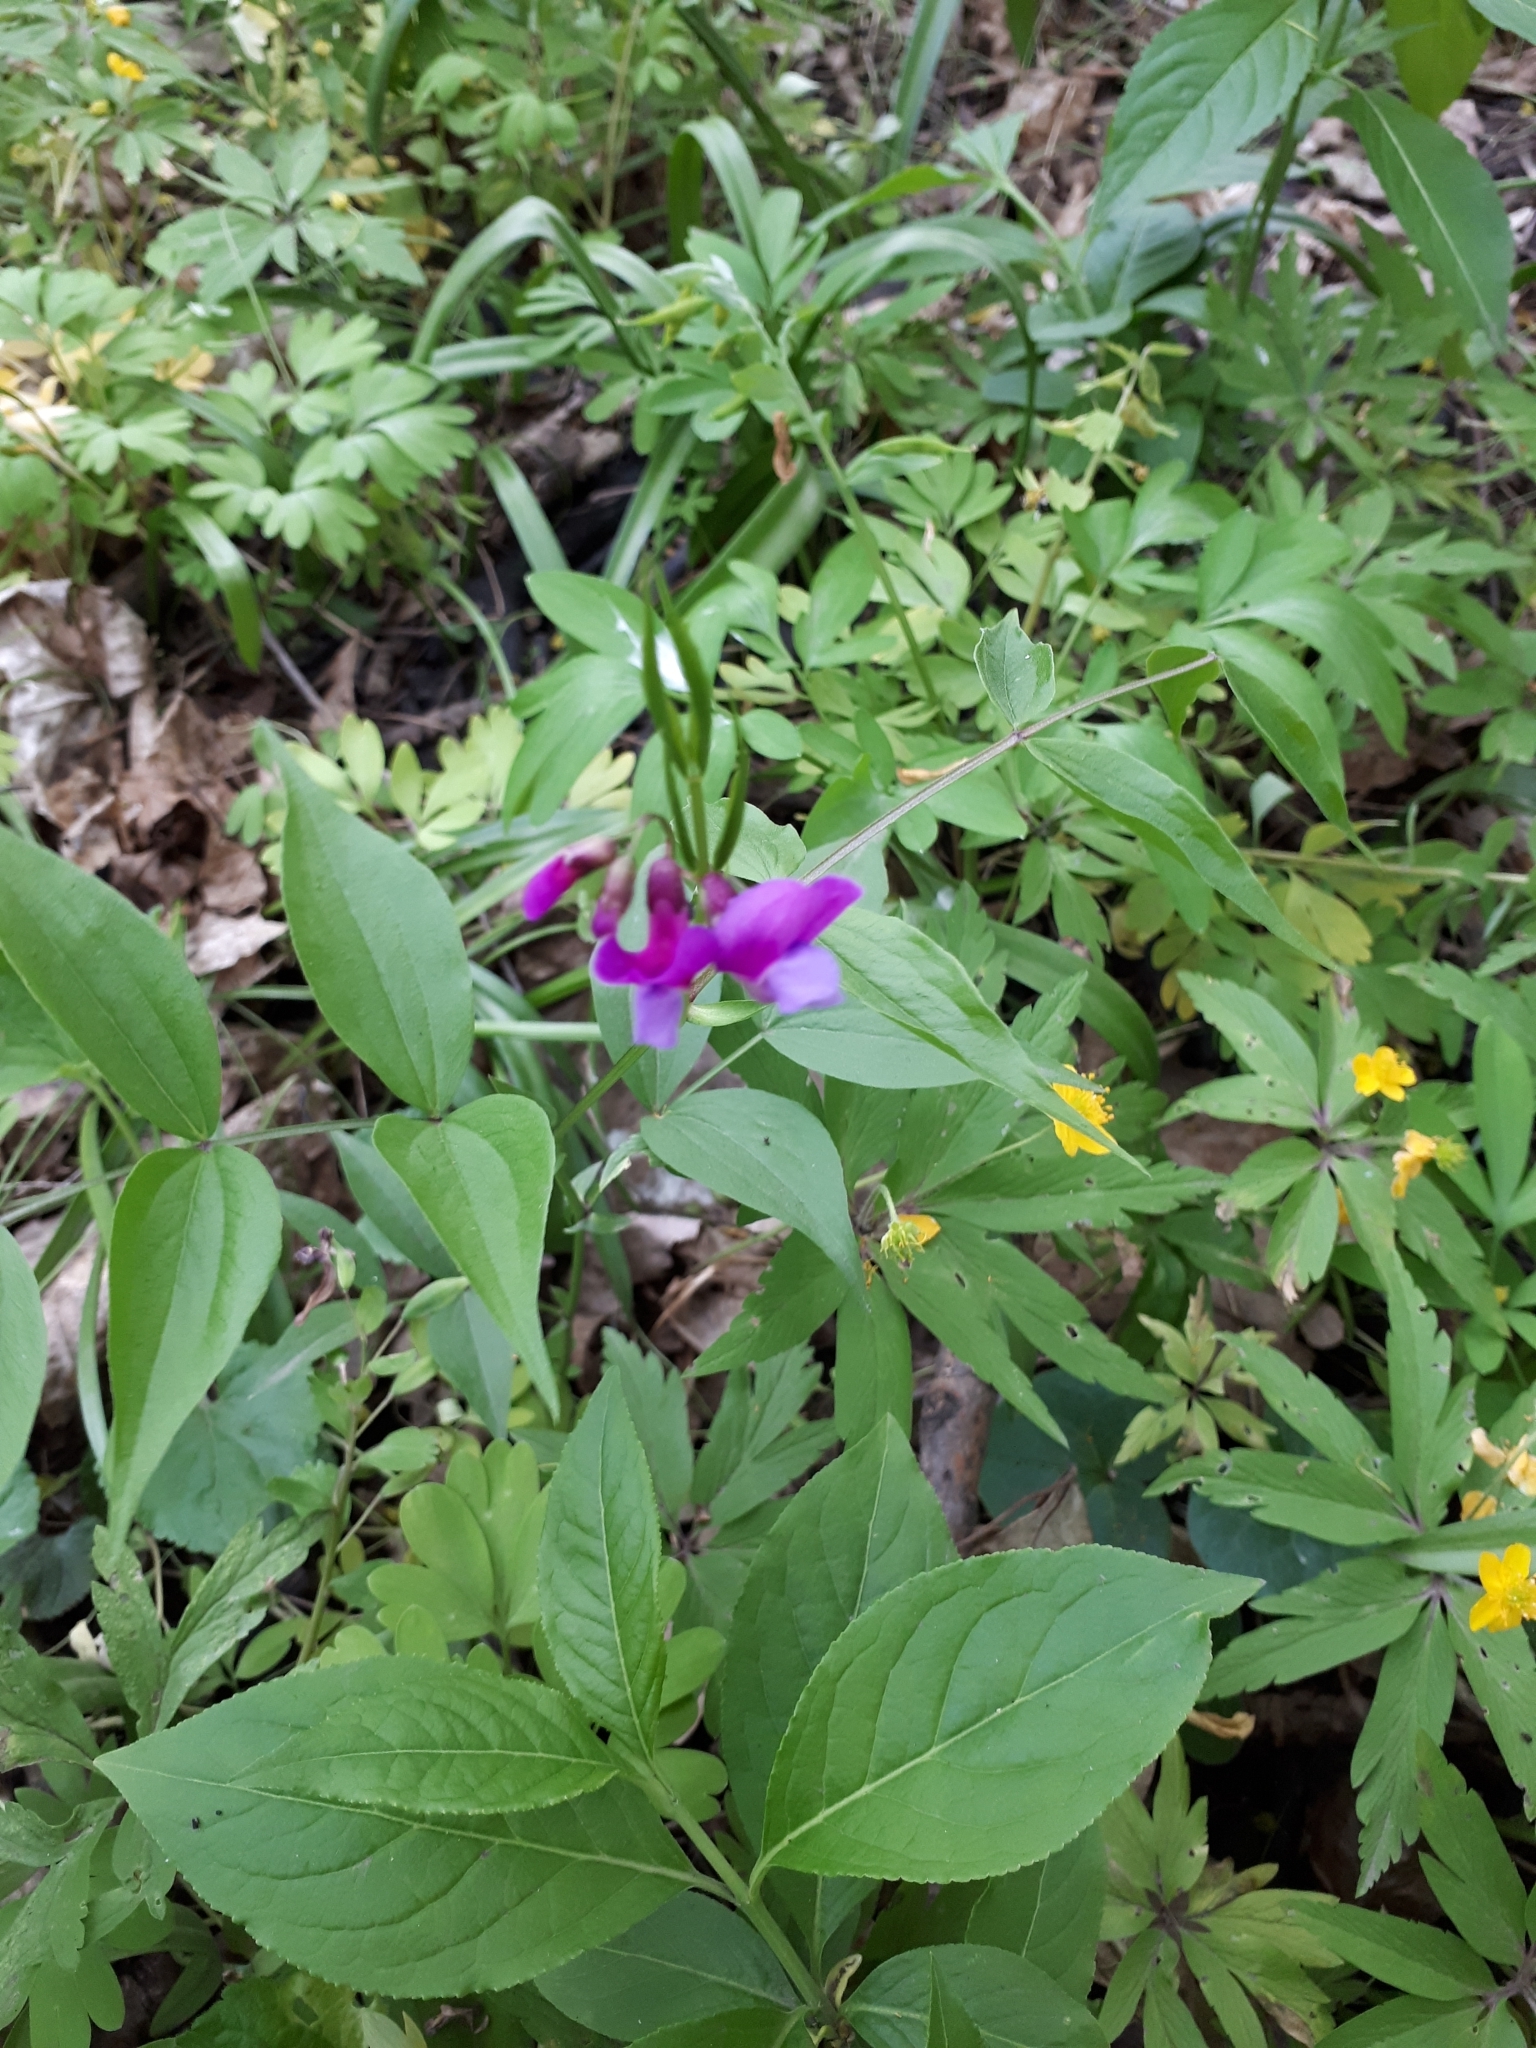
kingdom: Plantae
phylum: Tracheophyta
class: Magnoliopsida
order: Fabales
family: Fabaceae
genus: Lathyrus
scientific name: Lathyrus vernus
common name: Spring pea
